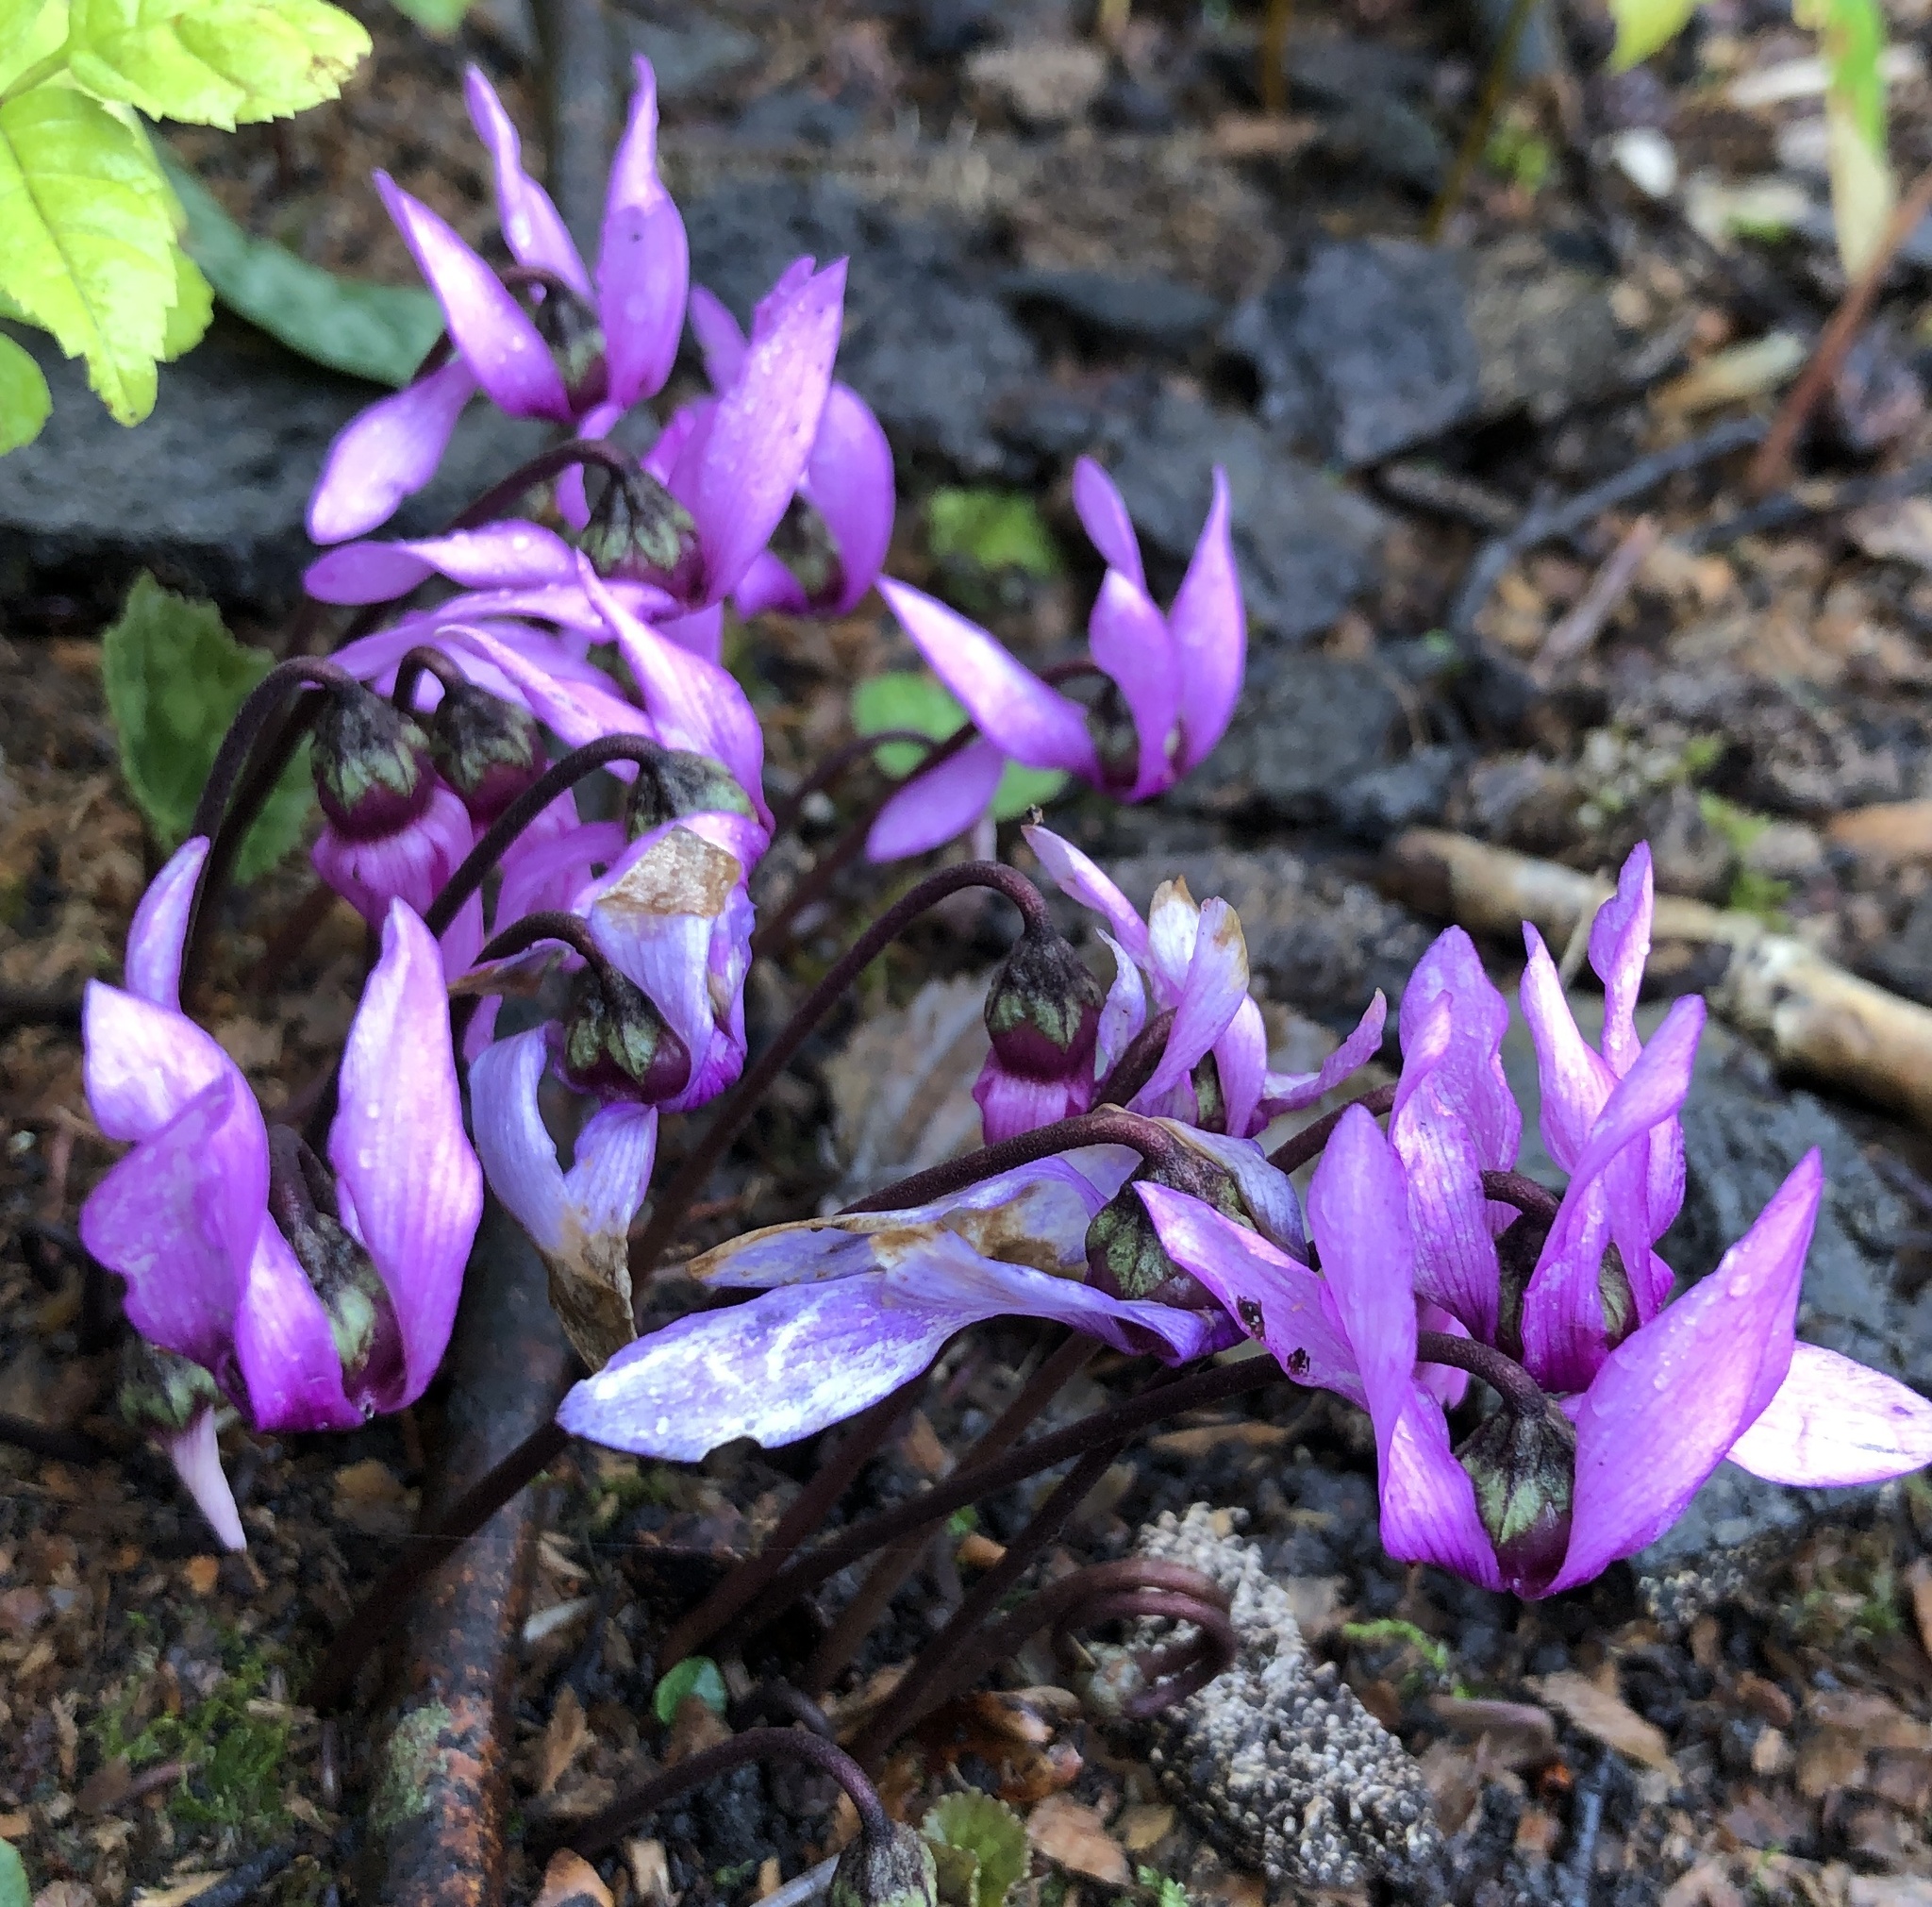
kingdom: Plantae
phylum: Tracheophyta
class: Magnoliopsida
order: Ericales
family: Primulaceae
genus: Cyclamen
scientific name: Cyclamen purpurascens
